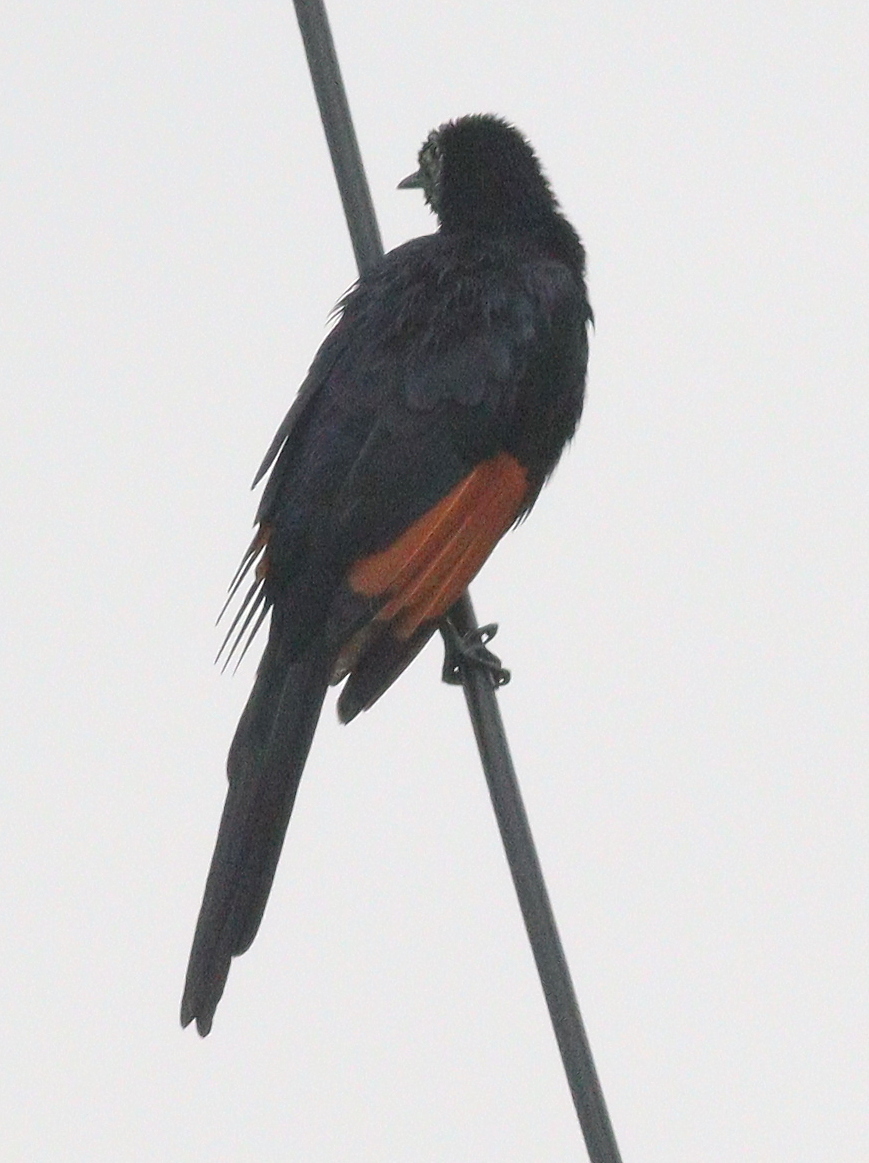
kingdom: Animalia
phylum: Chordata
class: Aves
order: Passeriformes
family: Sturnidae
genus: Onychognathus
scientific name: Onychognathus tenuirostris
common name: Slender-billed starling
